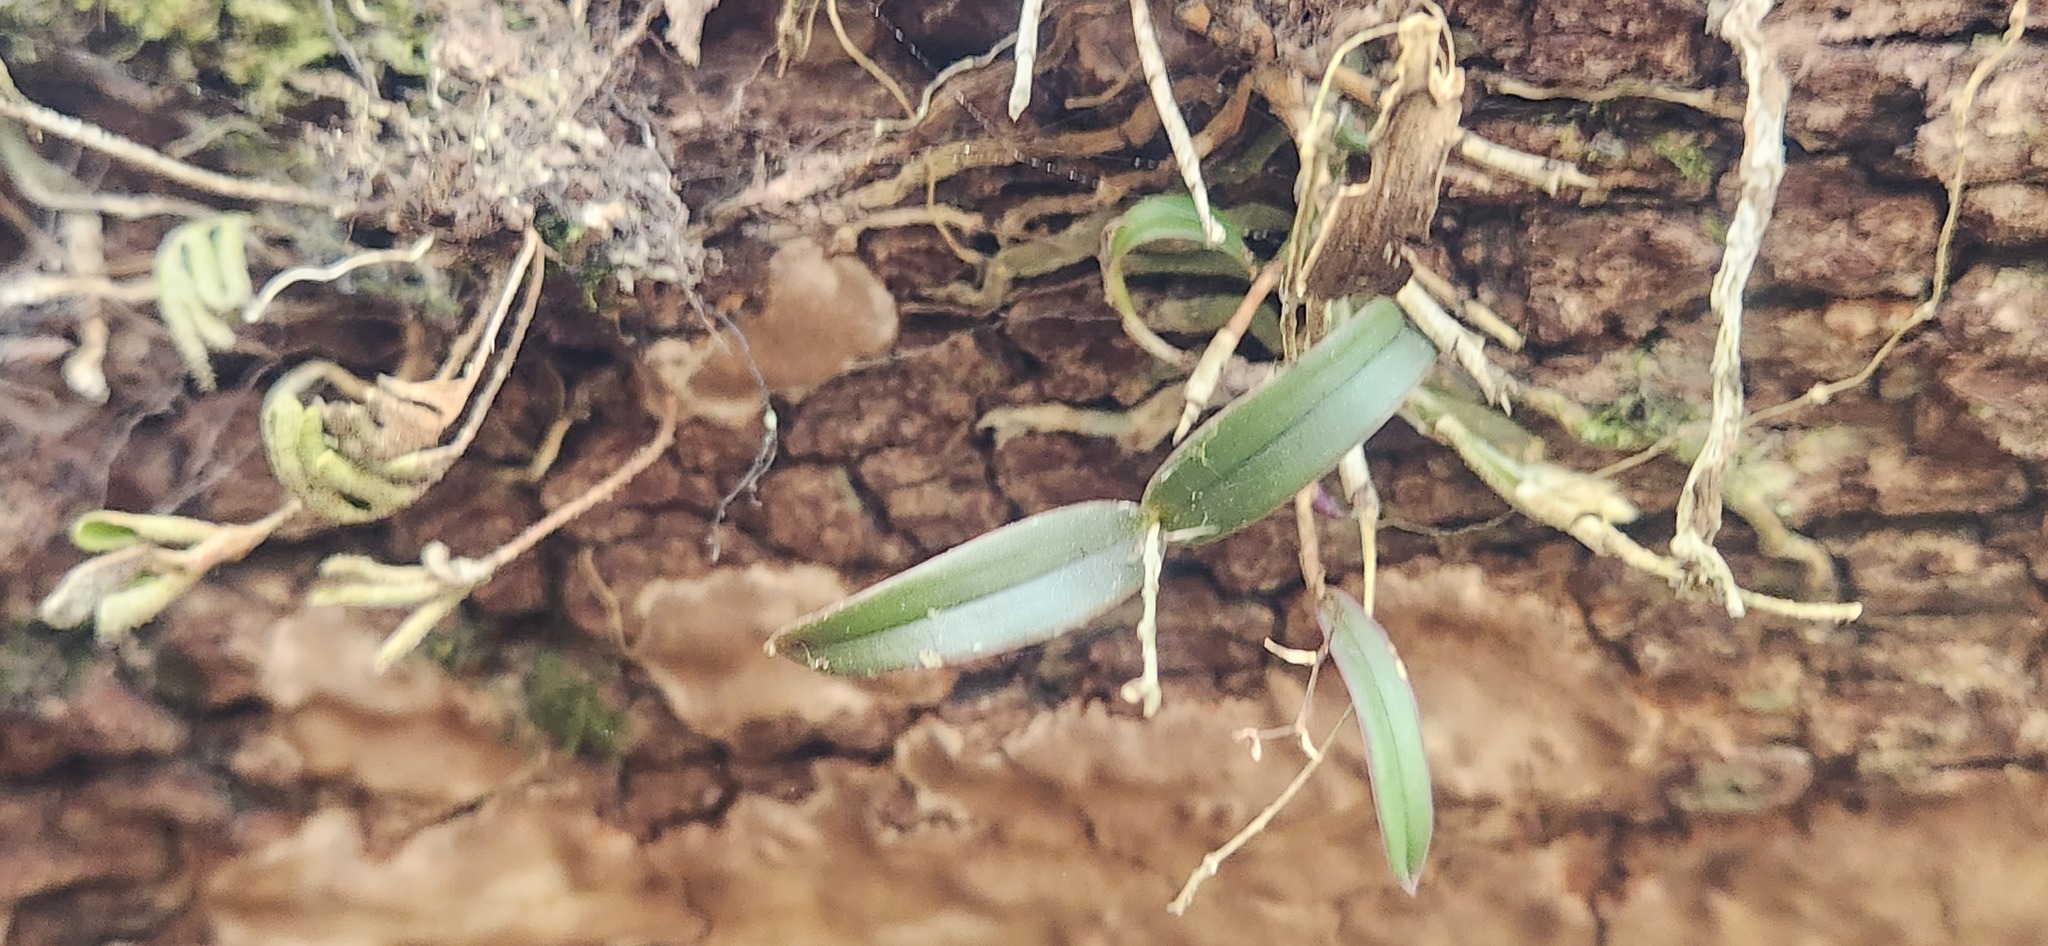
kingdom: Plantae
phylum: Tracheophyta
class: Liliopsida
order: Asparagales
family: Orchidaceae
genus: Epidendrum
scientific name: Epidendrum conopseum
